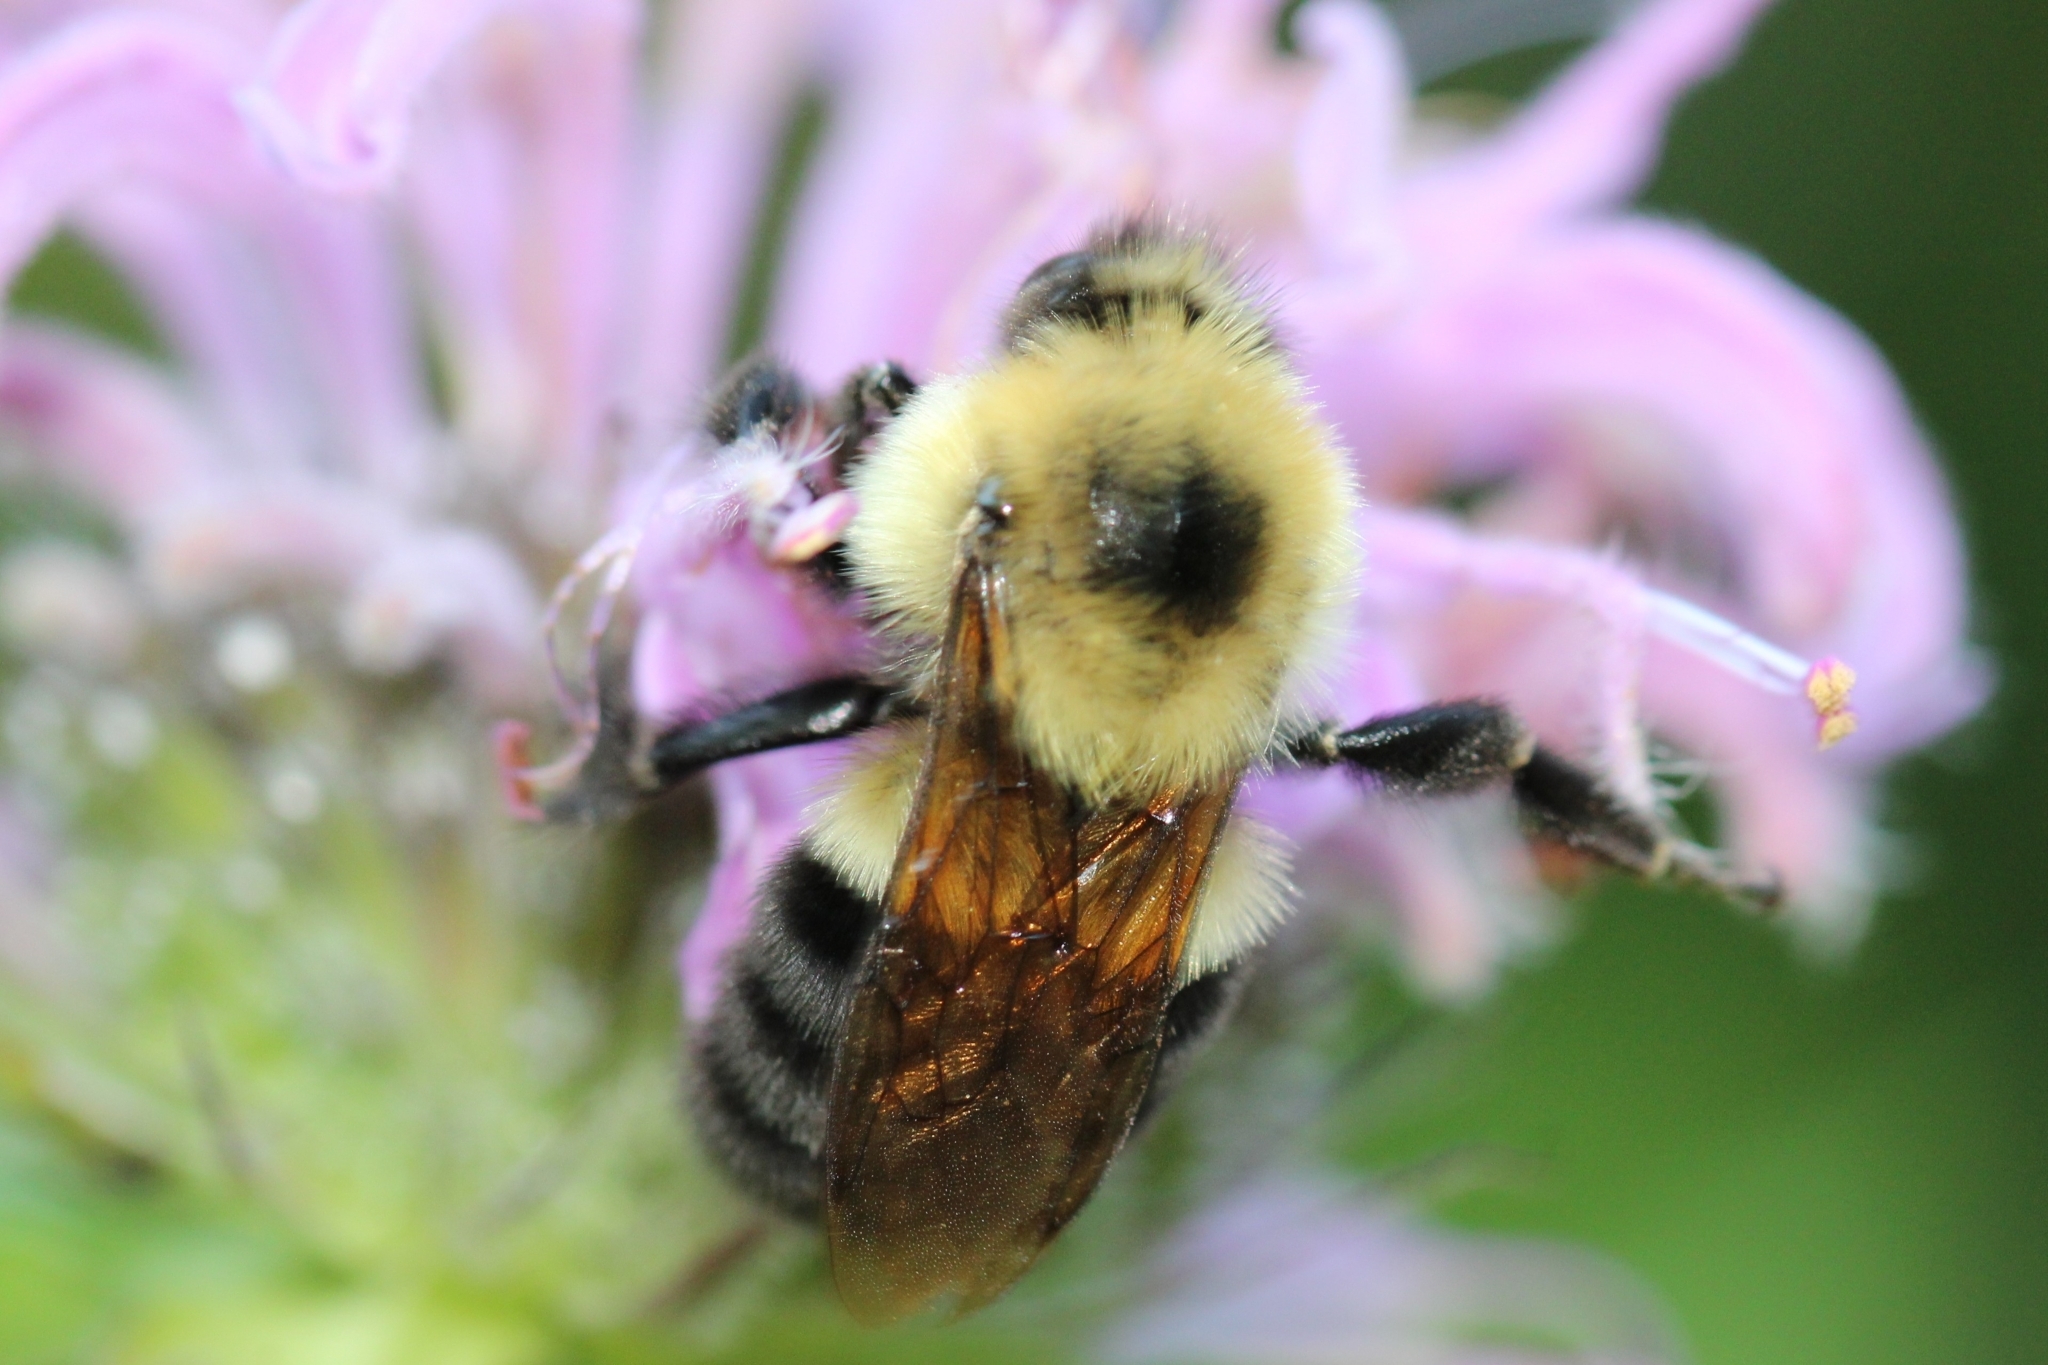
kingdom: Animalia
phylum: Arthropoda
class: Insecta
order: Hymenoptera
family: Apidae
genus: Bombus
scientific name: Bombus bimaculatus
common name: Two-spotted bumble bee
